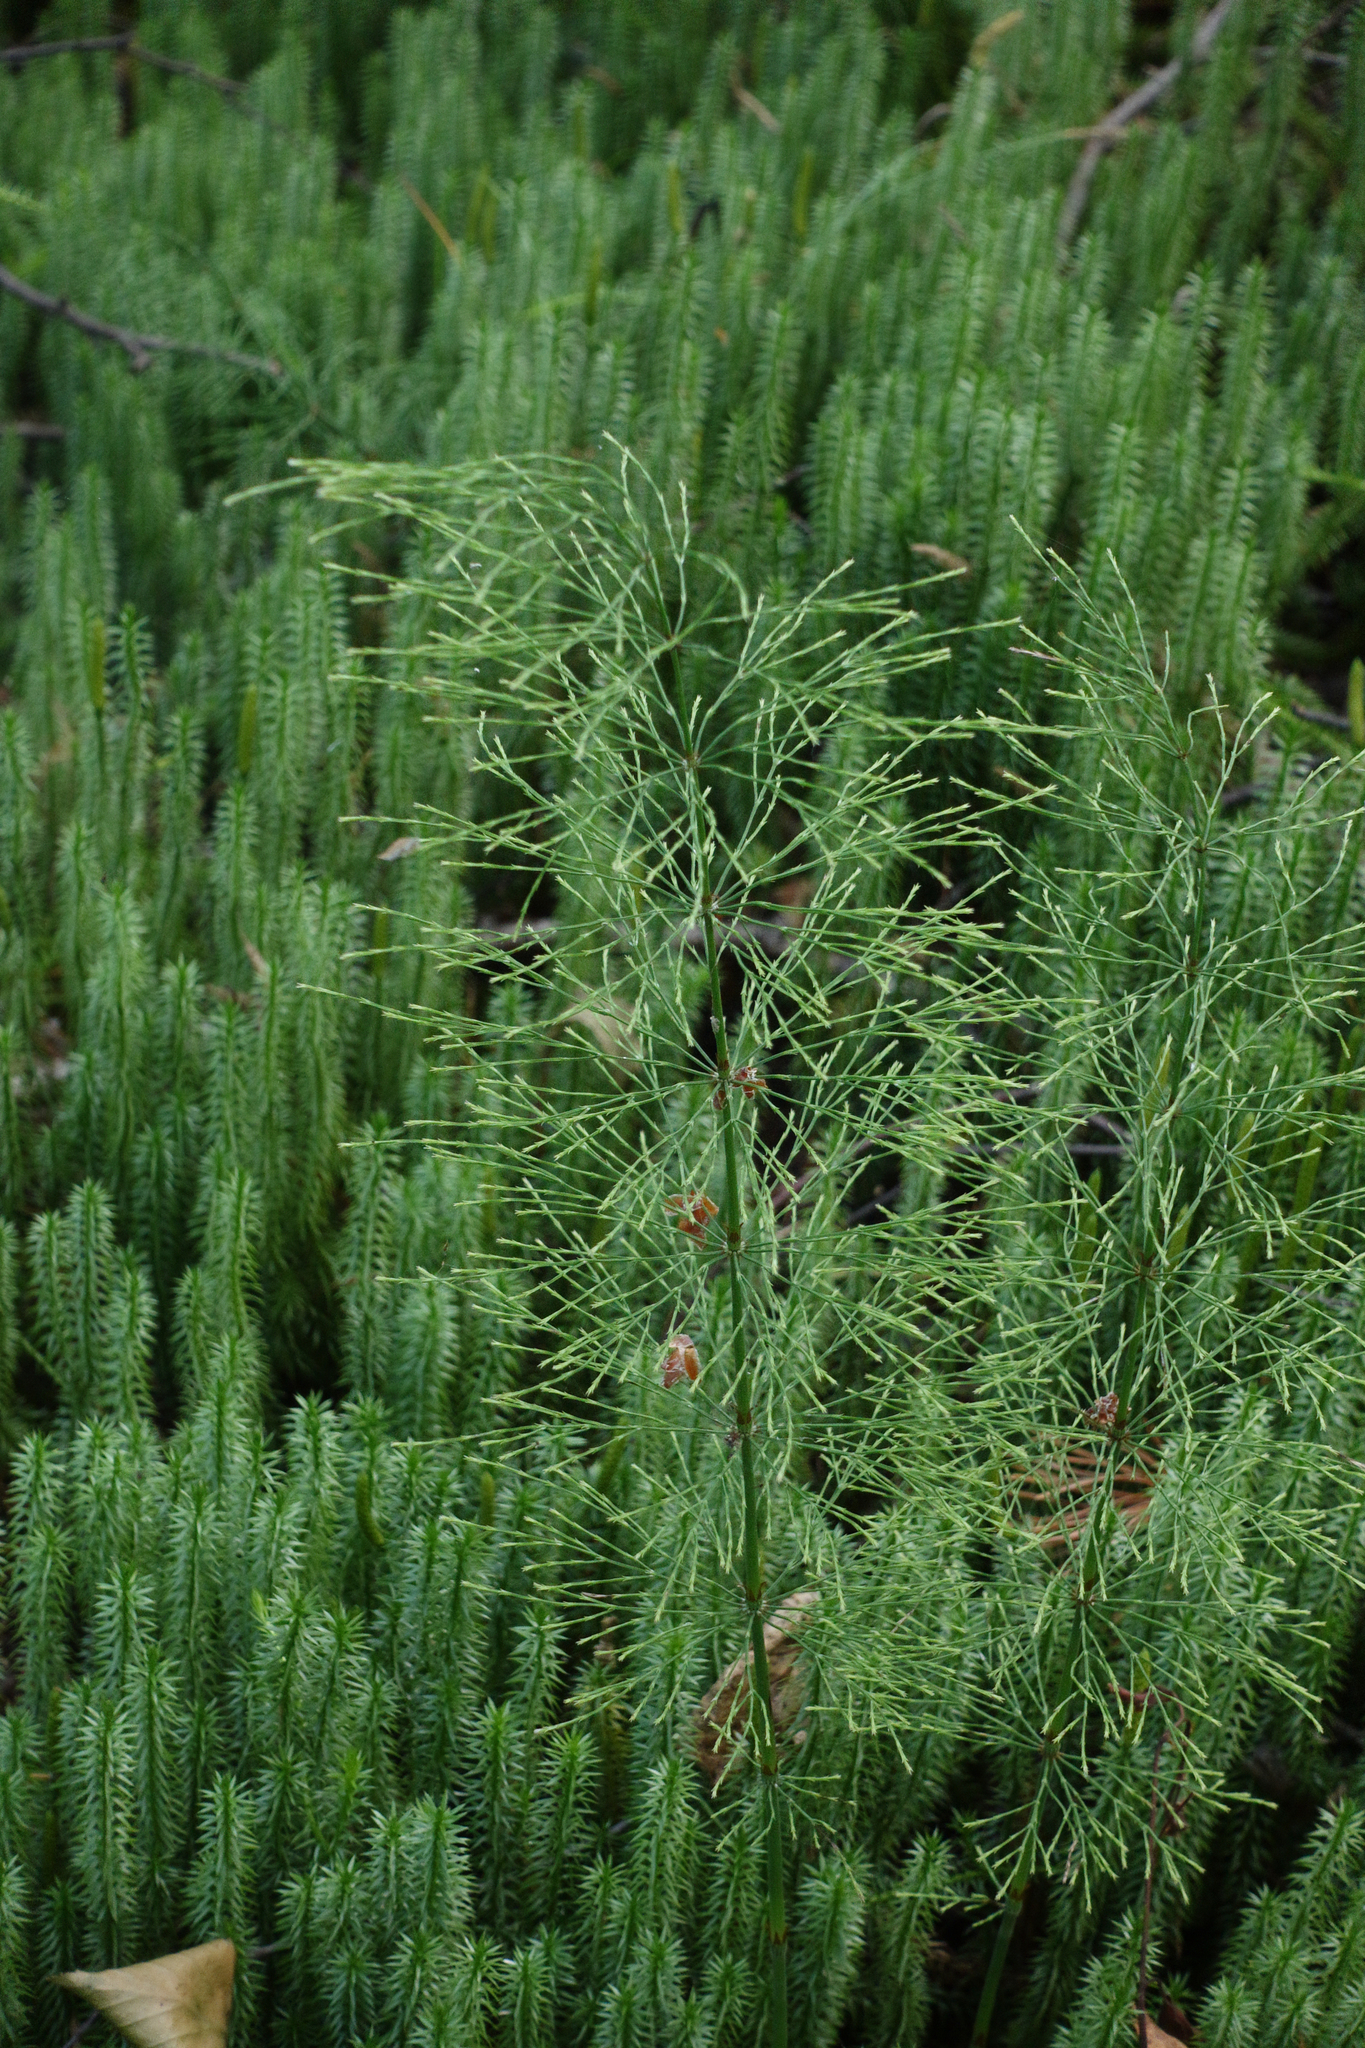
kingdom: Plantae
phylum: Tracheophyta
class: Polypodiopsida
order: Equisetales
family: Equisetaceae
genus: Equisetum
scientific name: Equisetum sylvaticum
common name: Wood horsetail
